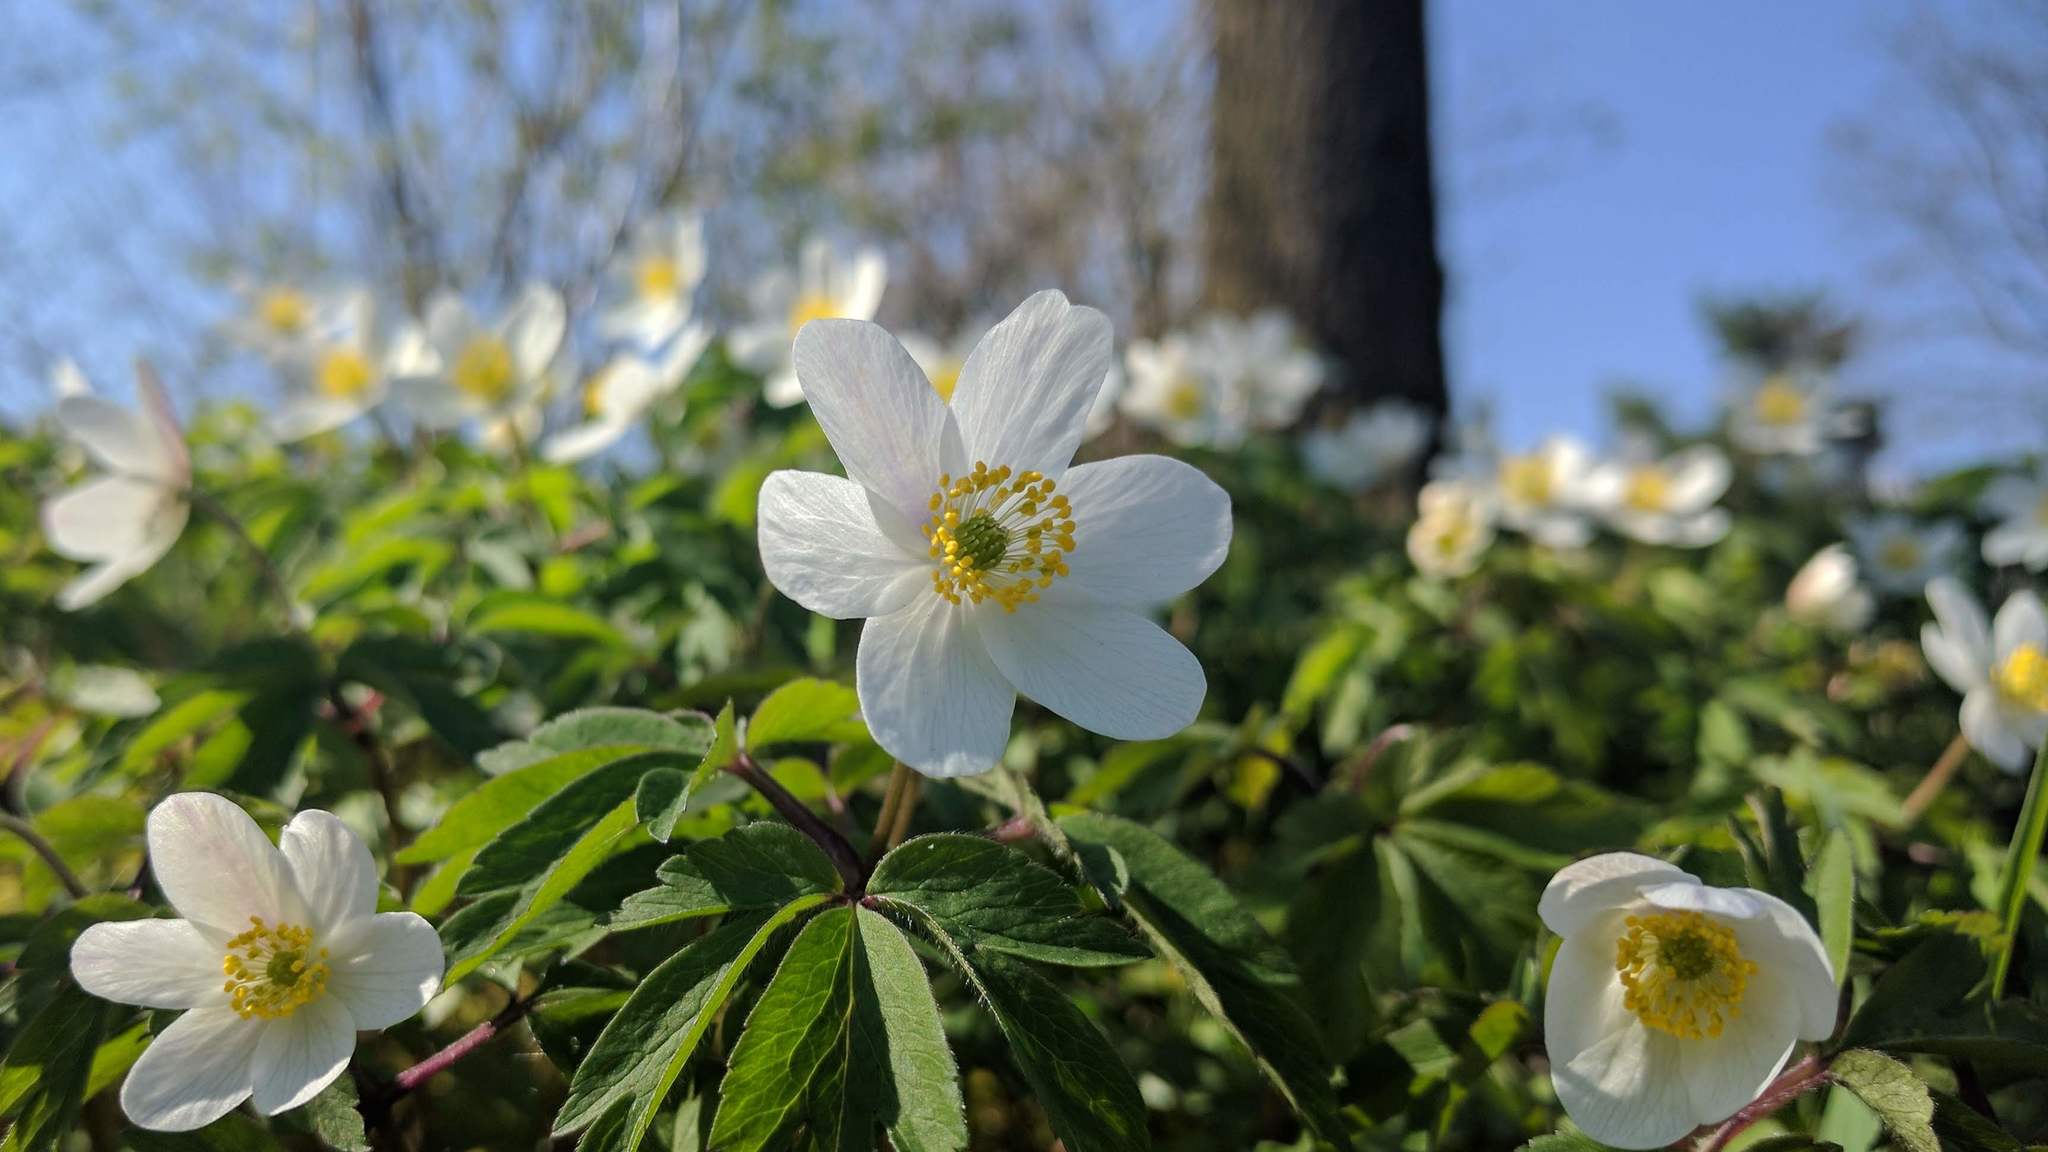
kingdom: Plantae
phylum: Tracheophyta
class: Magnoliopsida
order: Ranunculales
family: Ranunculaceae
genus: Anemone
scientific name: Anemone nemorosa
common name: Wood anemone
